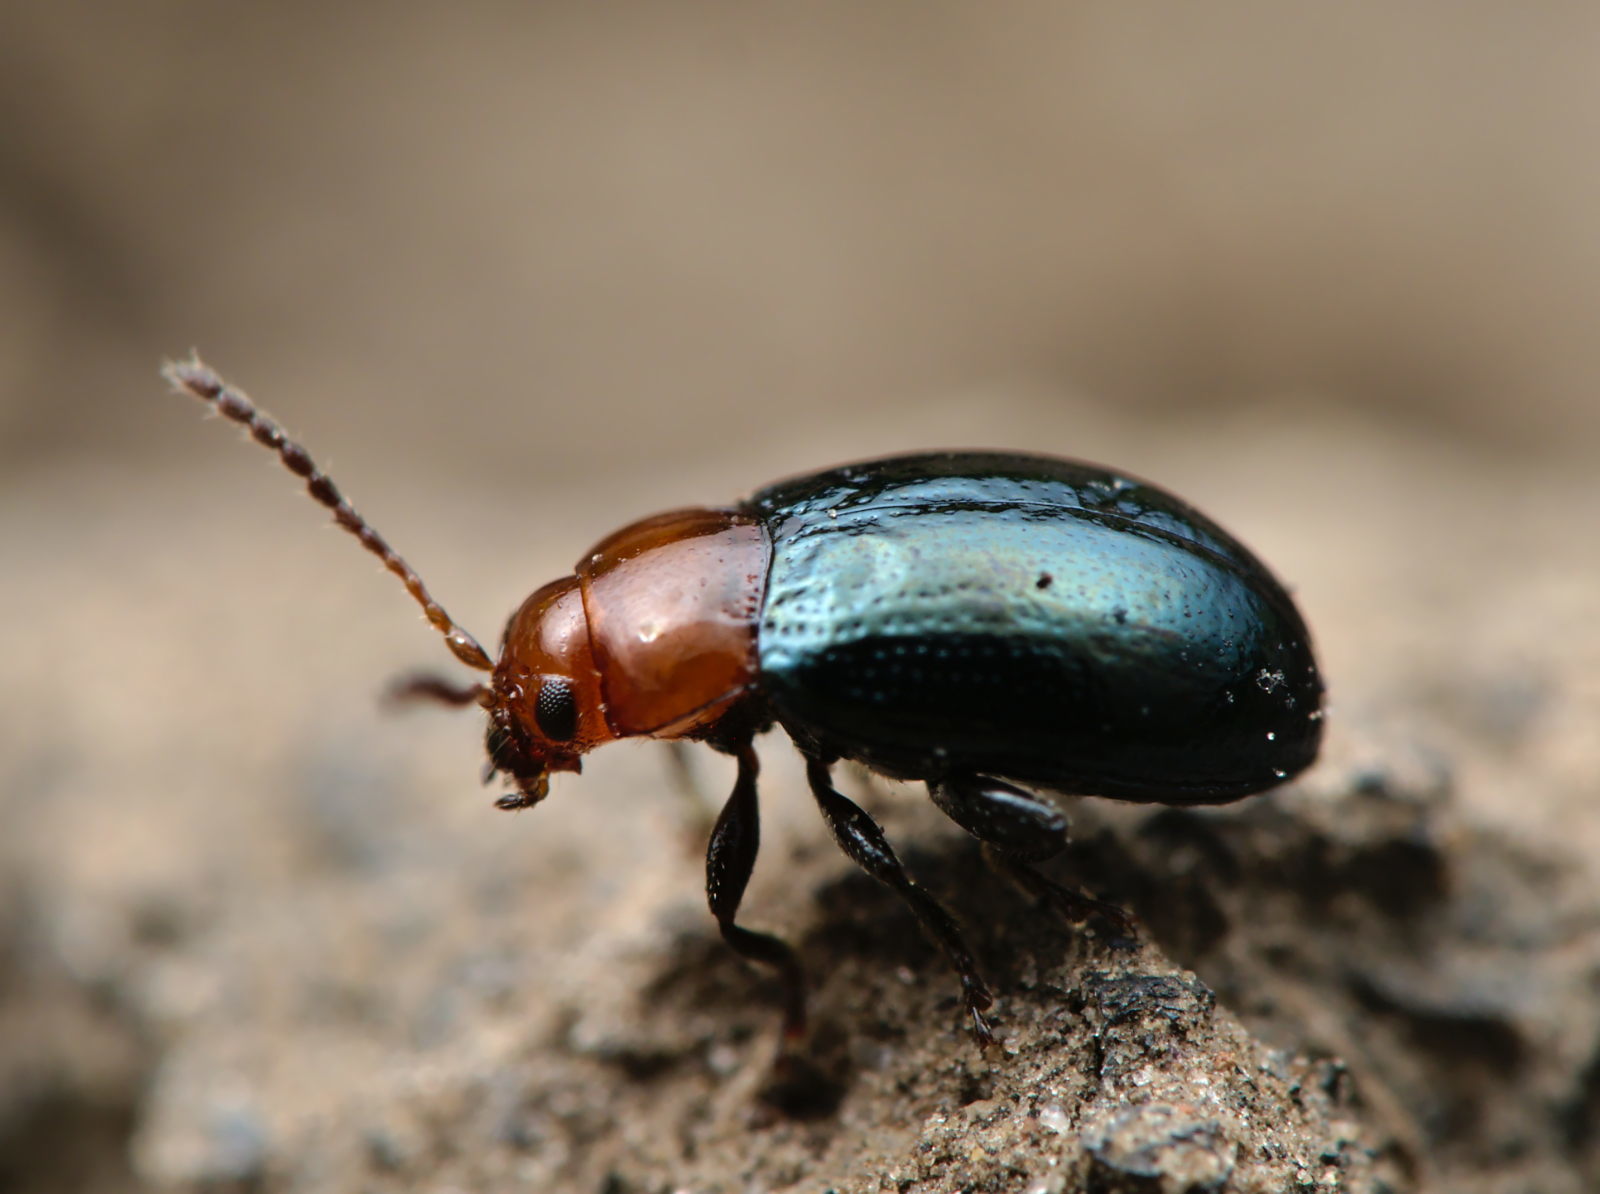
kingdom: Animalia
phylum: Arthropoda
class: Insecta
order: Coleoptera
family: Chrysomelidae
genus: Podagrica
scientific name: Podagrica fuscipes
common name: Mallow flea beetle
